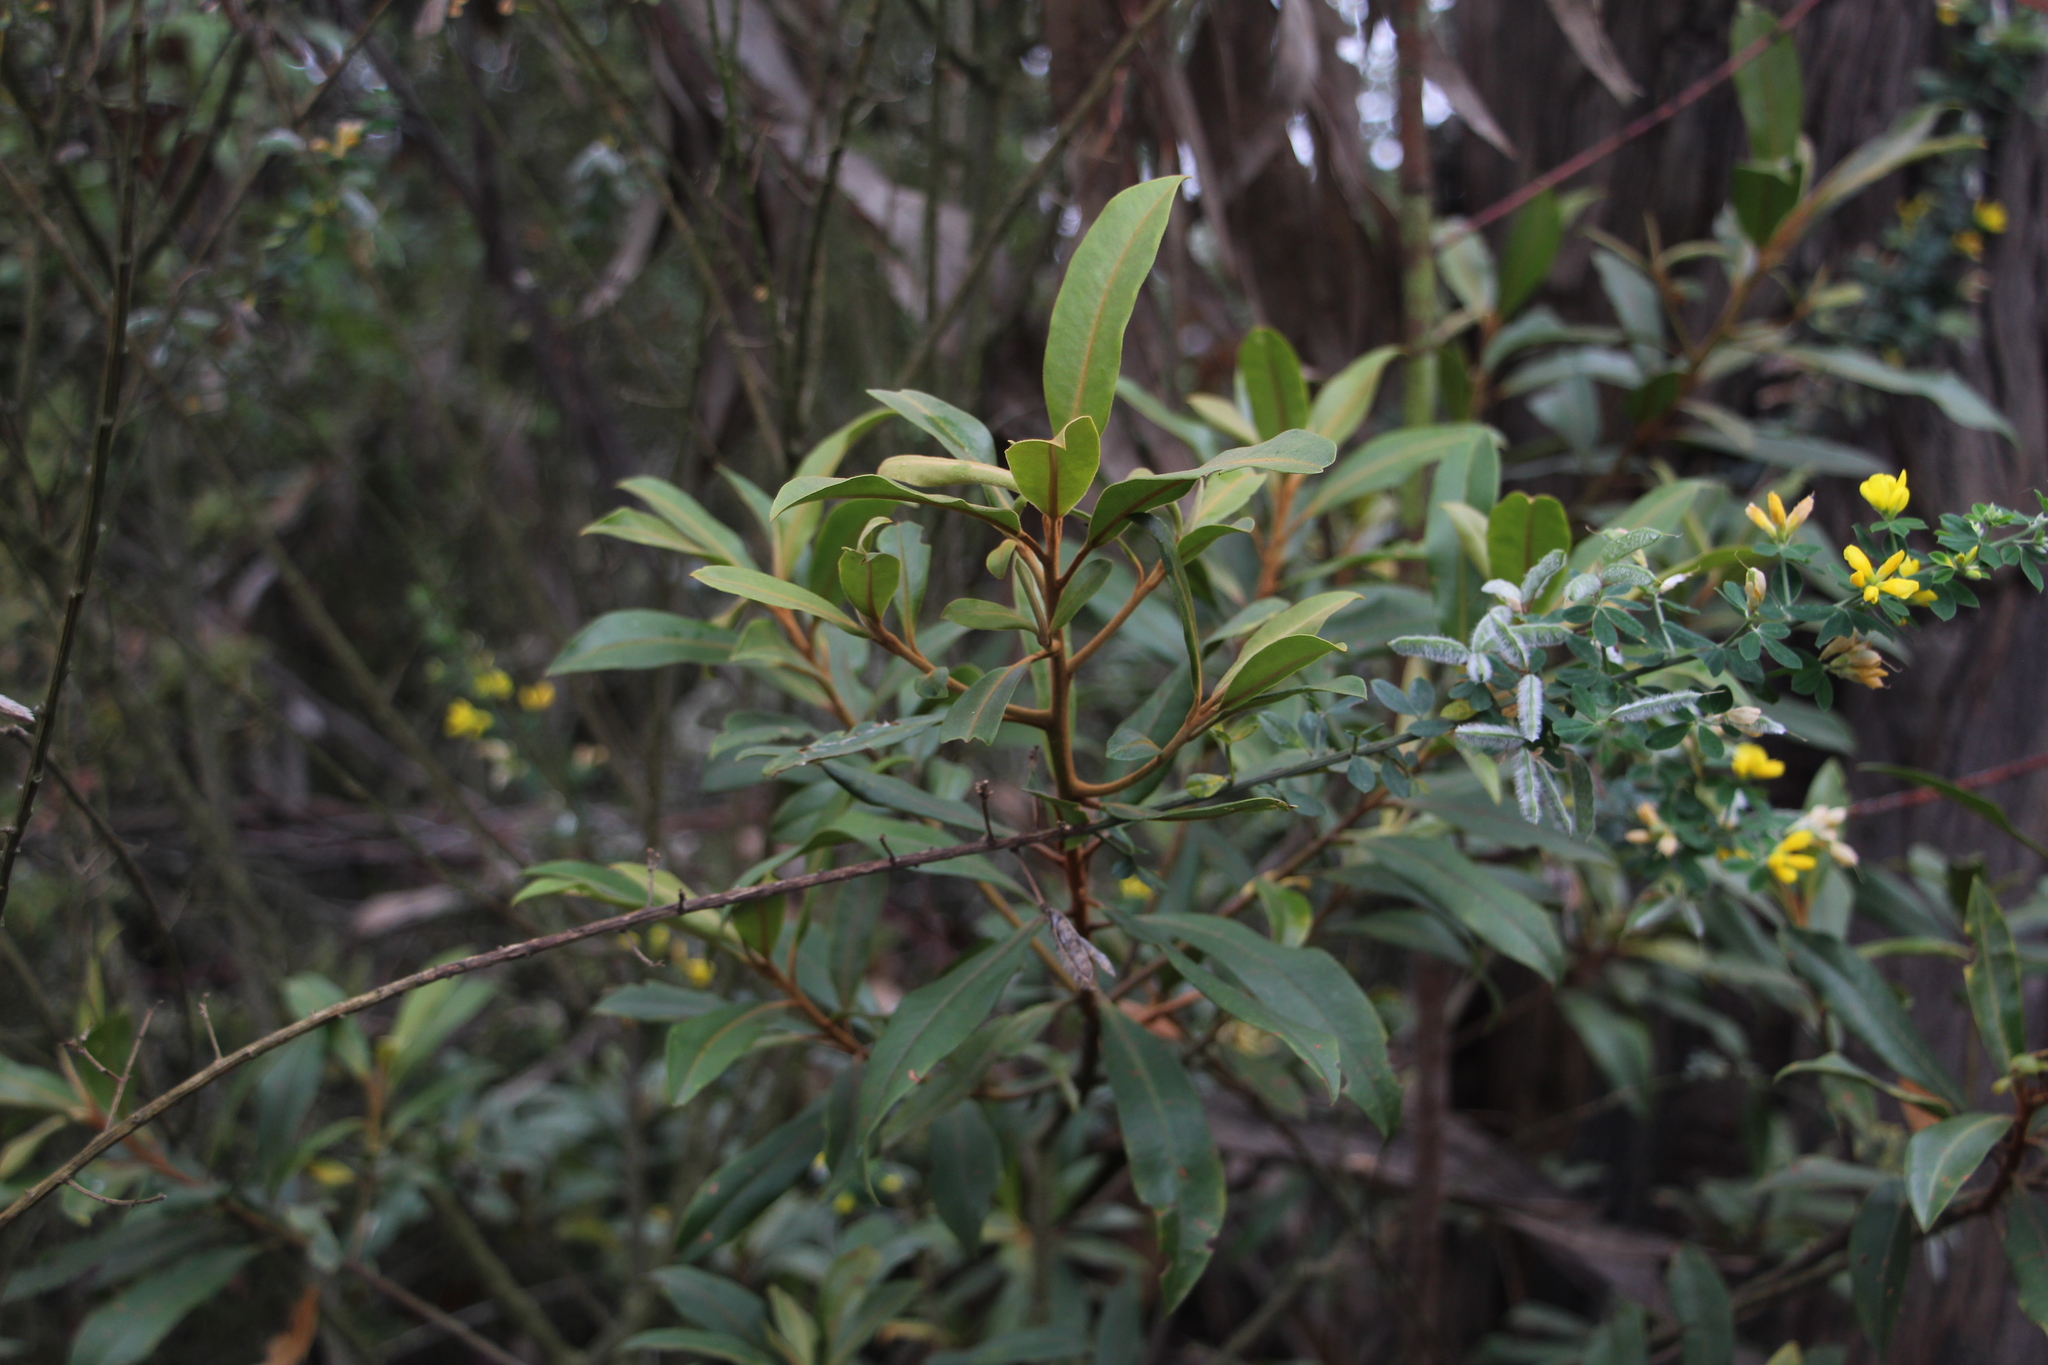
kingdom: Plantae
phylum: Tracheophyta
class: Magnoliopsida
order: Ericales
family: Primulaceae
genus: Myrsine
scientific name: Myrsine coriacea
